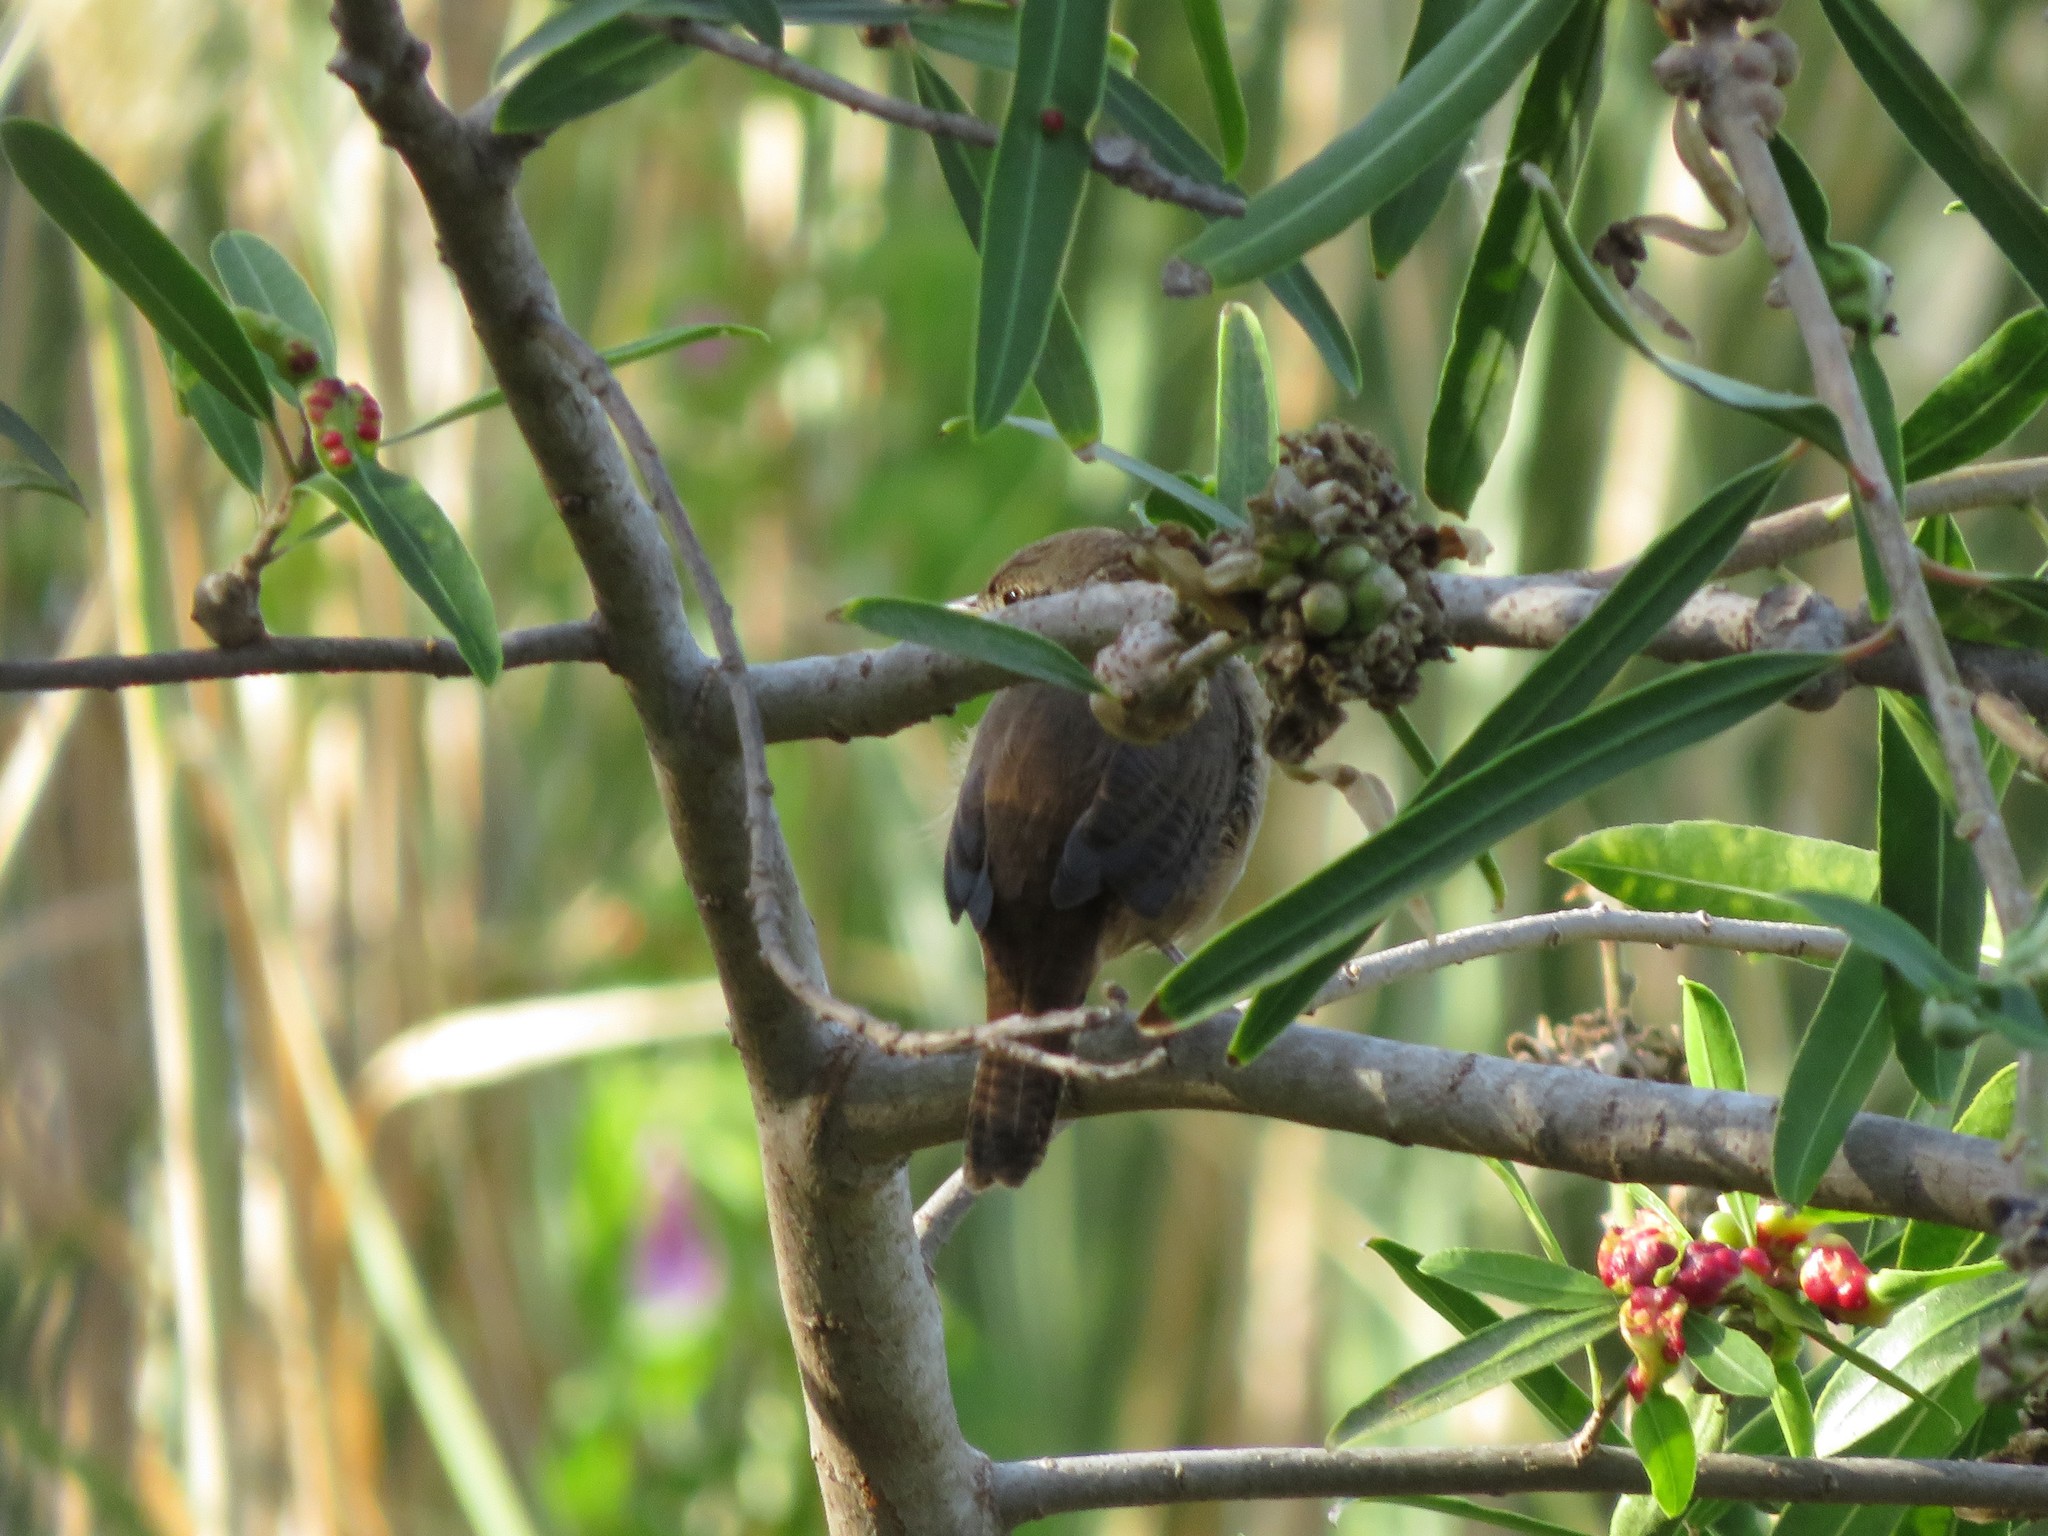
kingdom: Animalia
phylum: Chordata
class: Aves
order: Passeriformes
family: Troglodytidae
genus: Troglodytes
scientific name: Troglodytes aedon
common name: House wren
